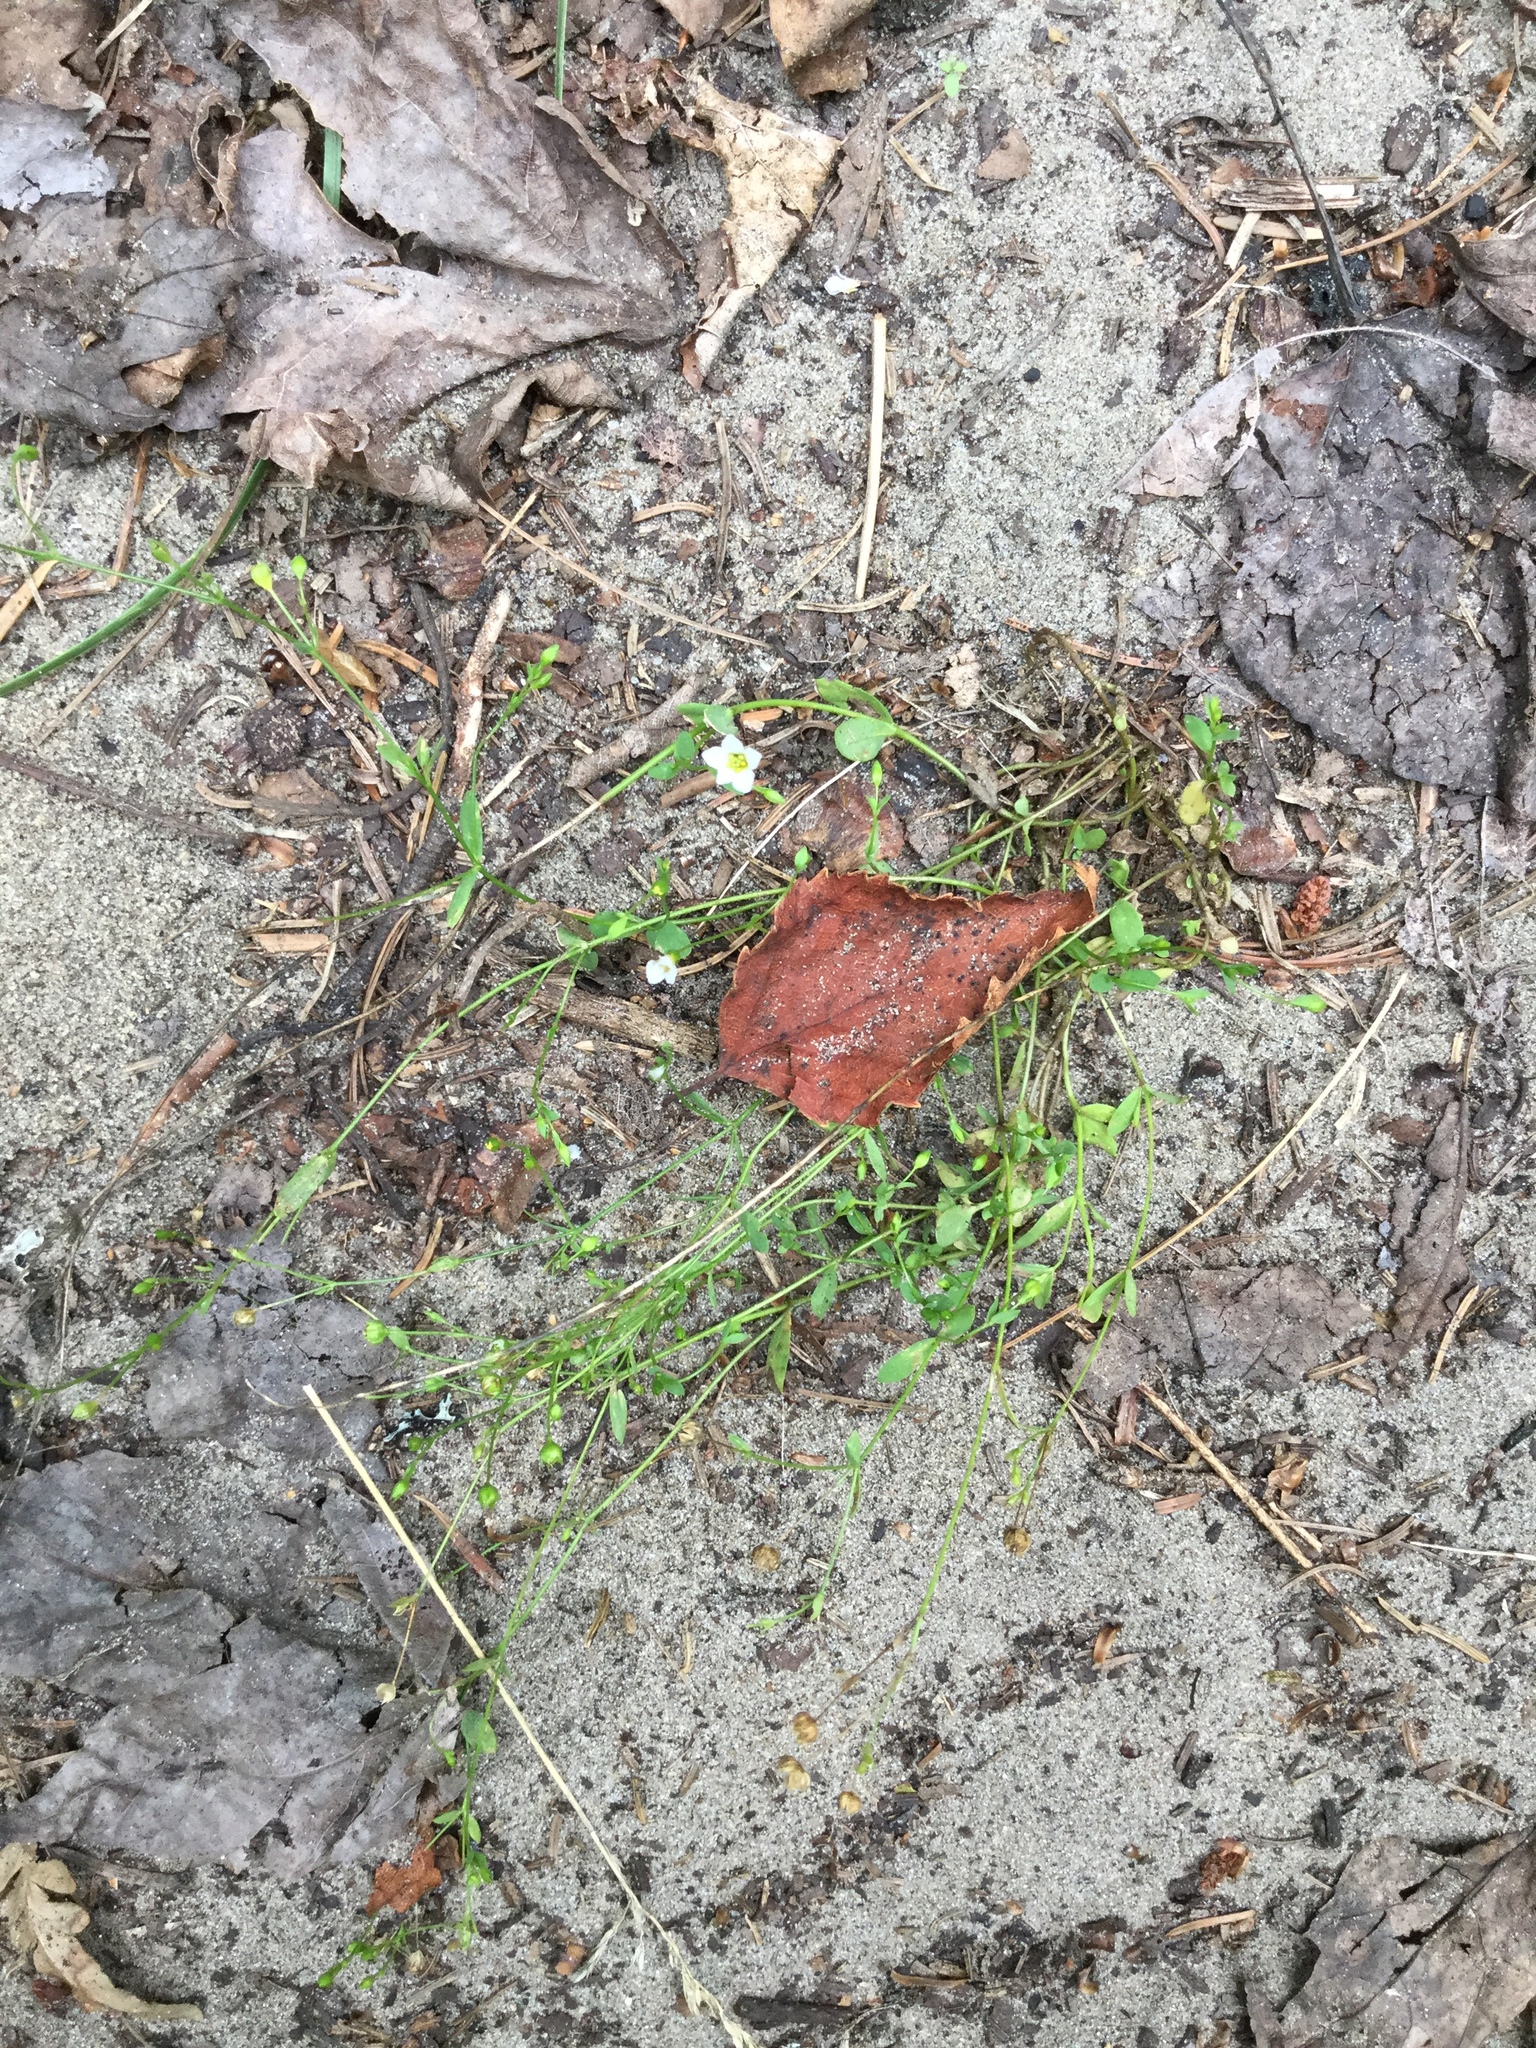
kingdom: Plantae
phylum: Tracheophyta
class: Magnoliopsida
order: Malpighiales
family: Linaceae
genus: Linum
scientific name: Linum catharticum
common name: Fairy flax
